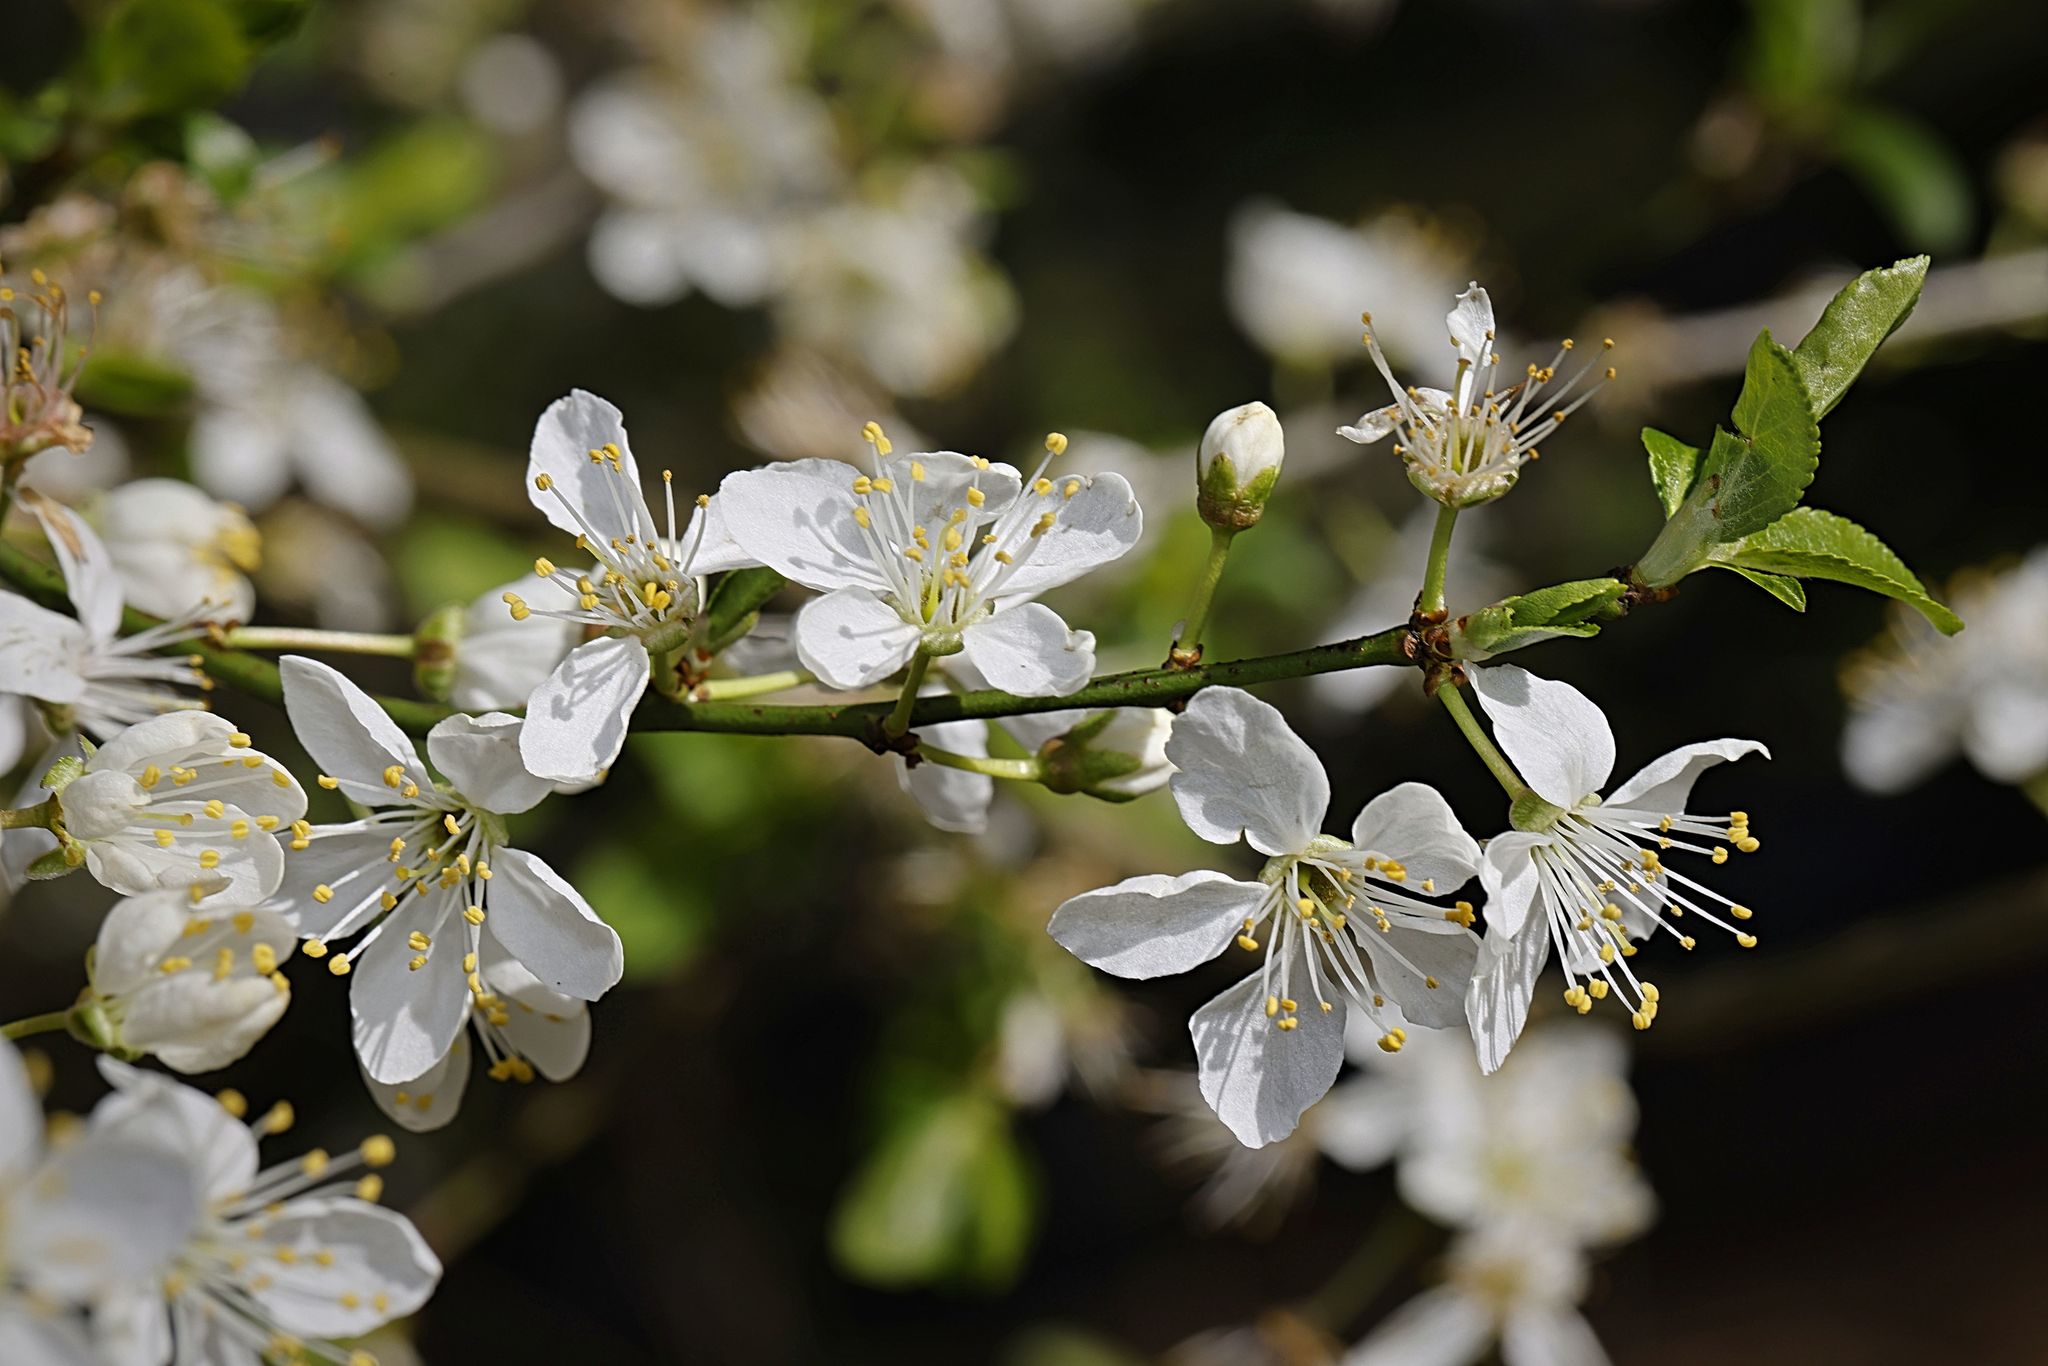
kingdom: Plantae
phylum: Tracheophyta
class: Magnoliopsida
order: Rosales
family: Rosaceae
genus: Prunus
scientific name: Prunus cerasifera
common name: Cherry plum
